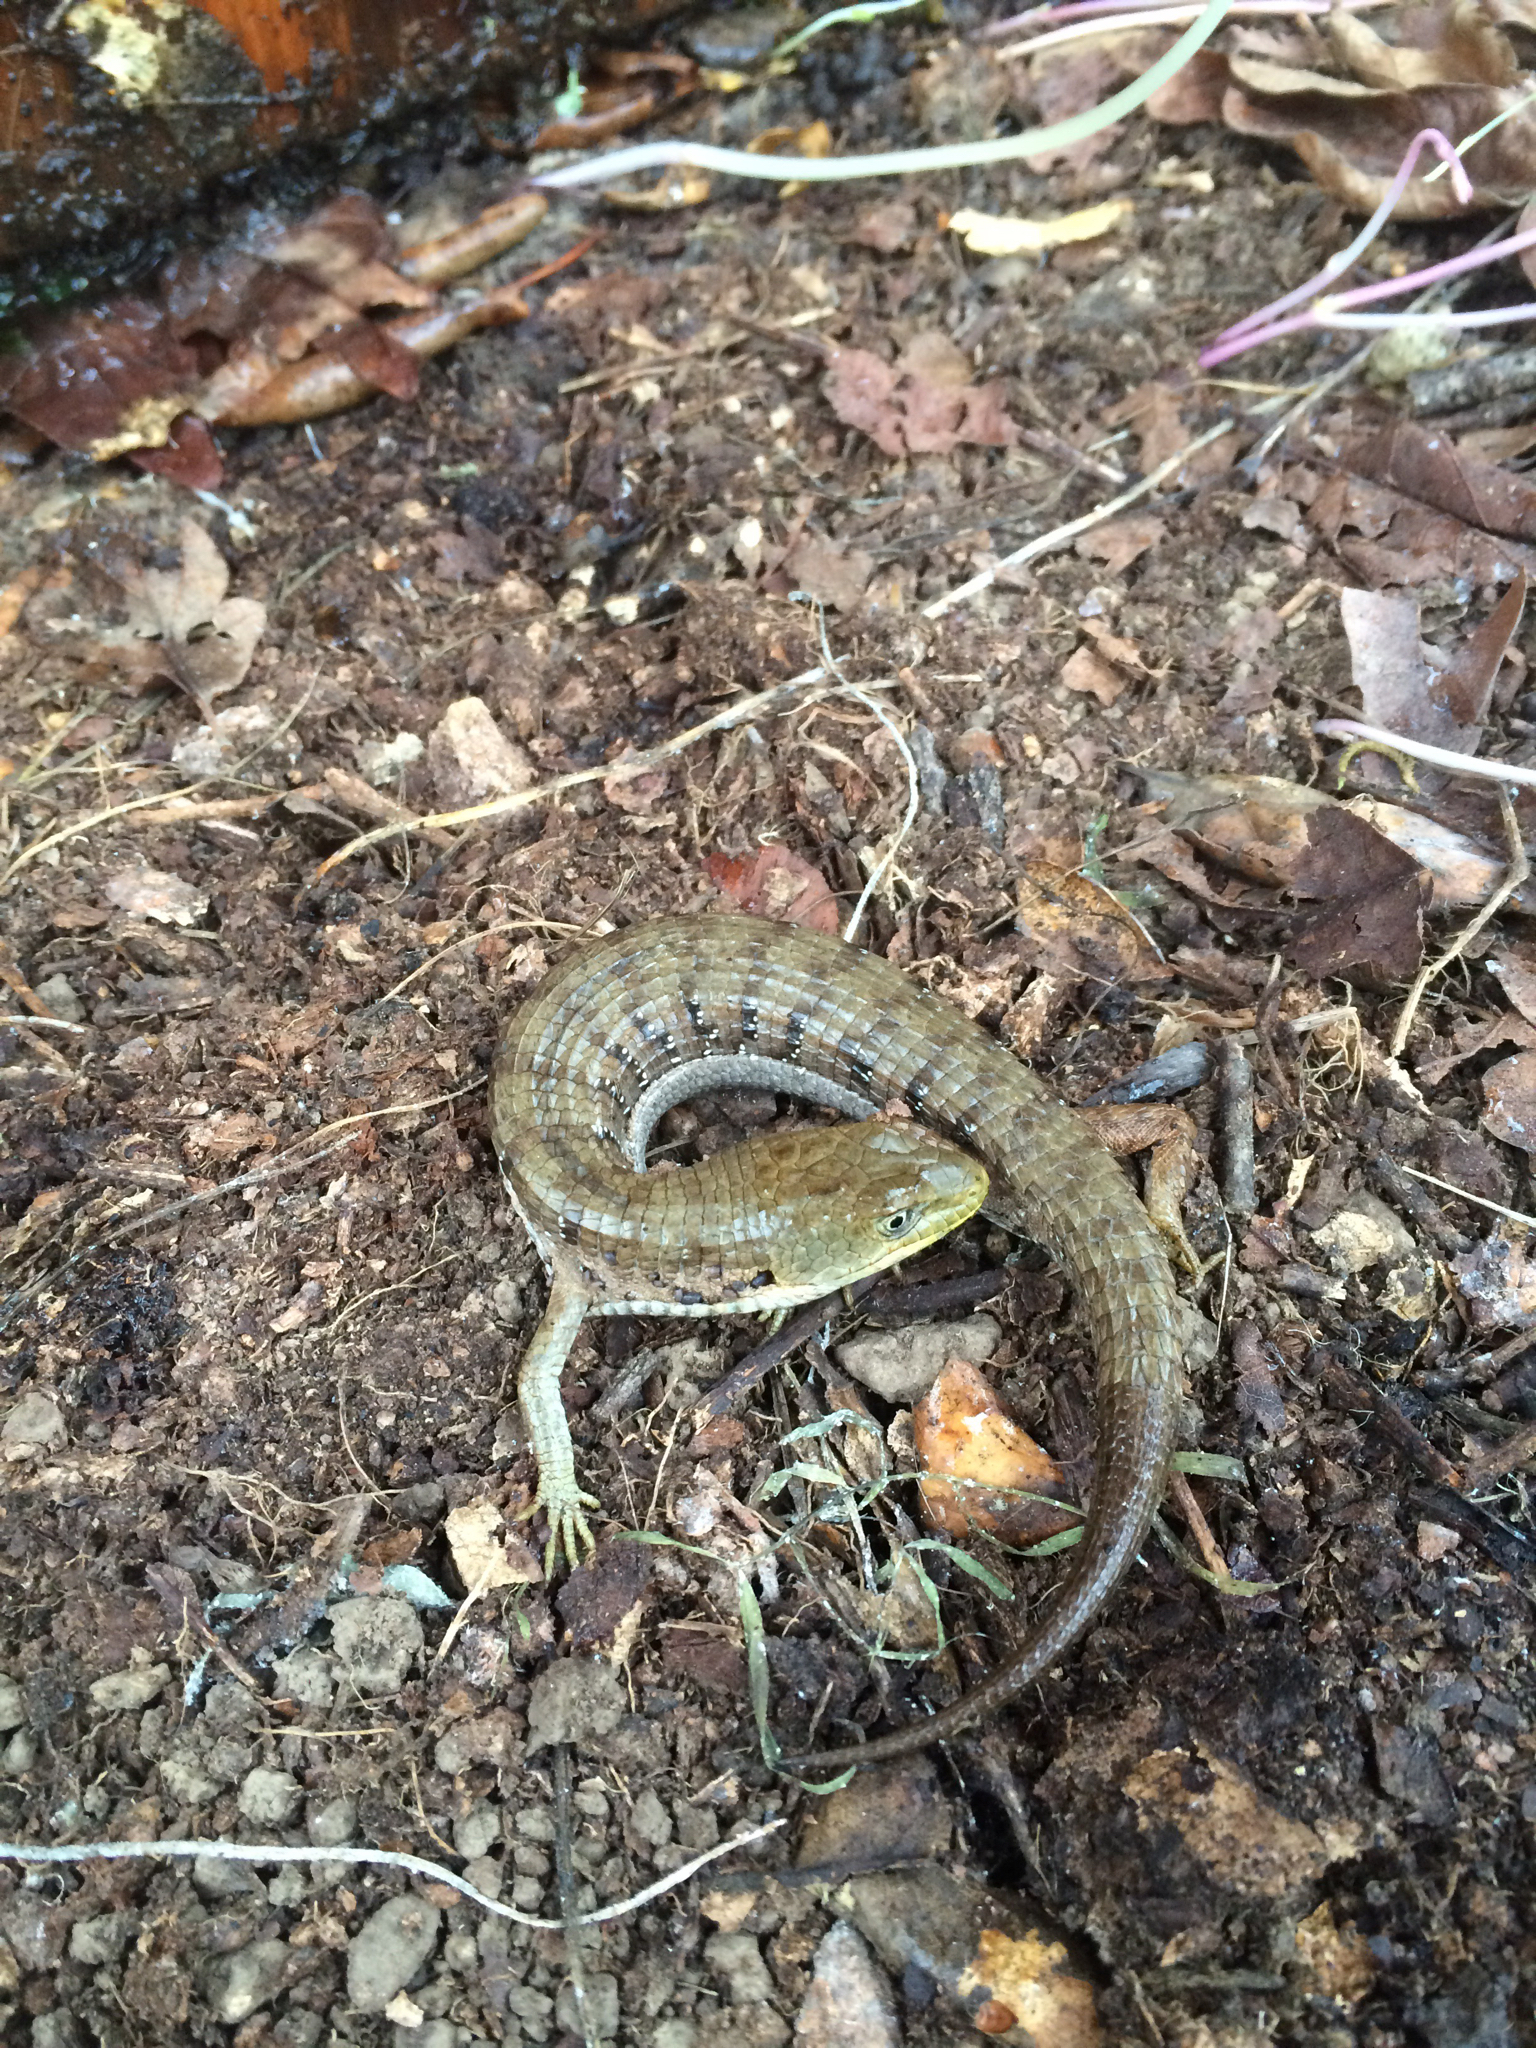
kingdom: Animalia
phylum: Chordata
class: Squamata
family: Anguidae
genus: Elgaria
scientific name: Elgaria multicarinata
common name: Southern alligator lizard
